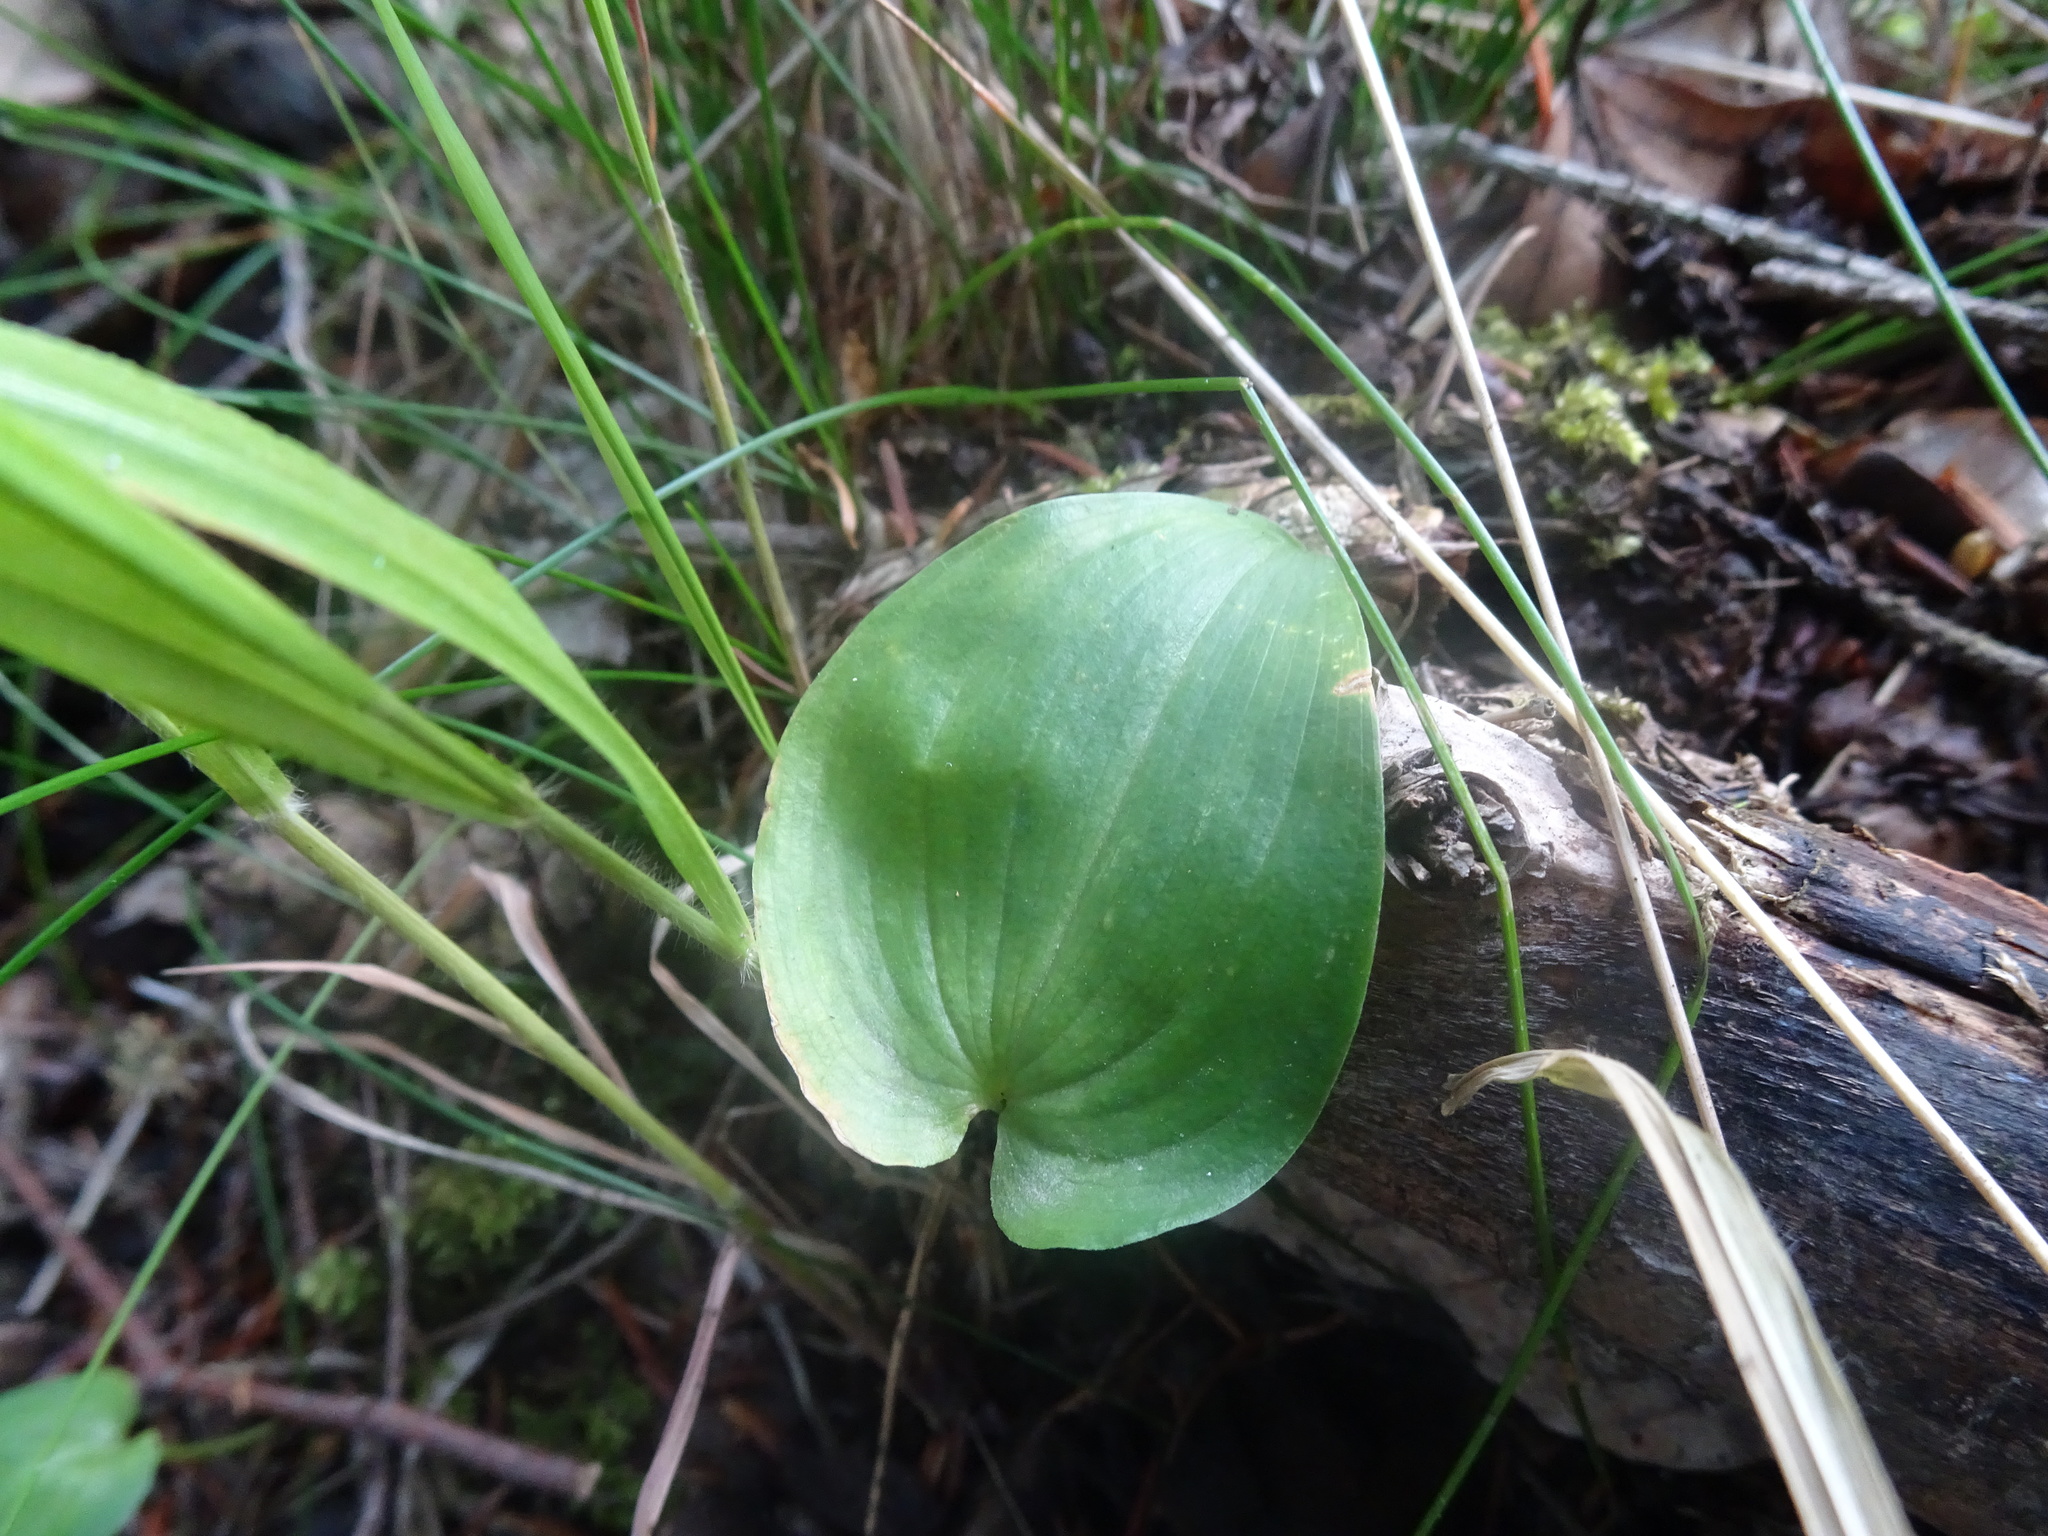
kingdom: Plantae
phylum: Tracheophyta
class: Liliopsida
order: Asparagales
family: Asparagaceae
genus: Maianthemum
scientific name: Maianthemum bifolium
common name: May lily
